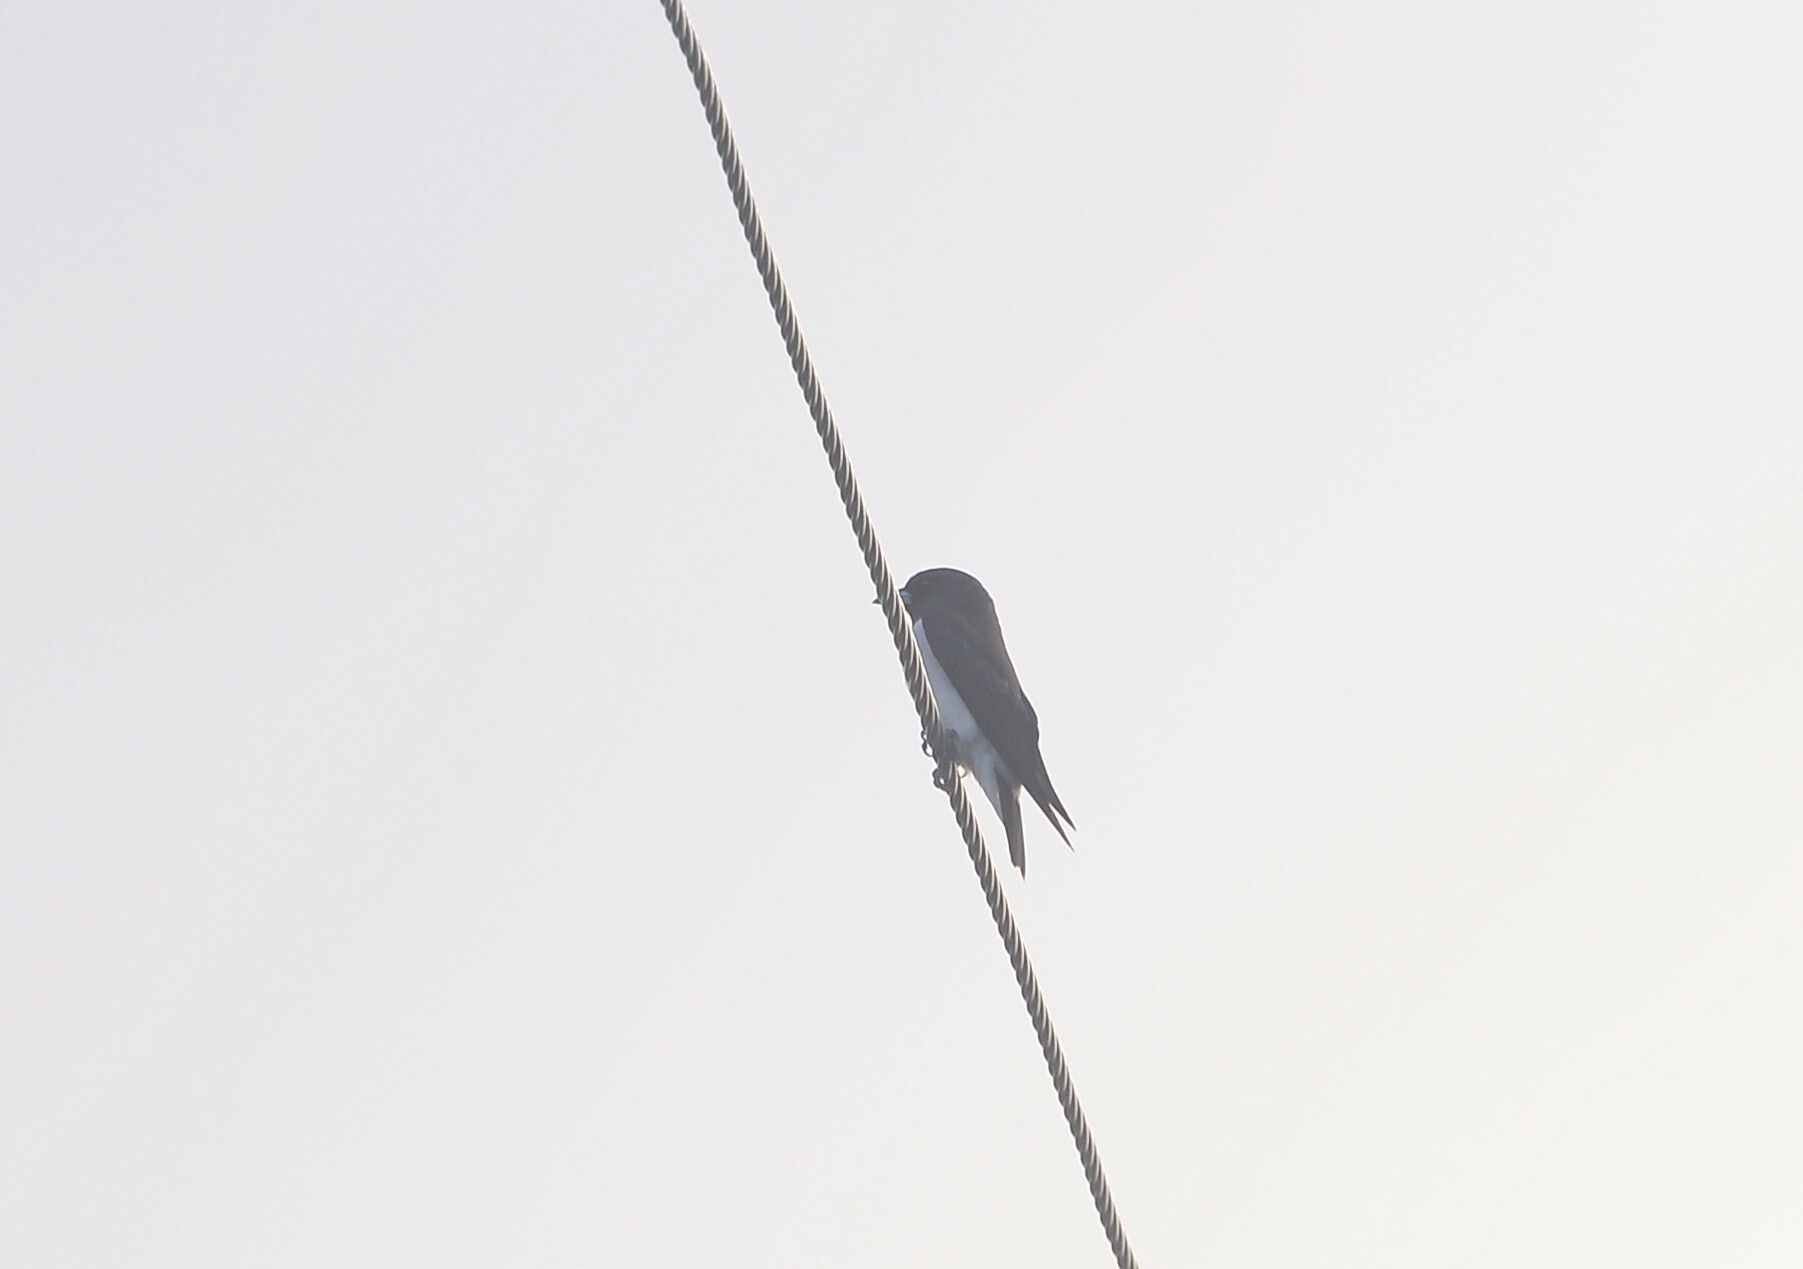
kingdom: Animalia
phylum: Chordata
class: Aves
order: Passeriformes
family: Artamidae
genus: Artamus
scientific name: Artamus leucoryn
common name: White-breasted woodswallow
